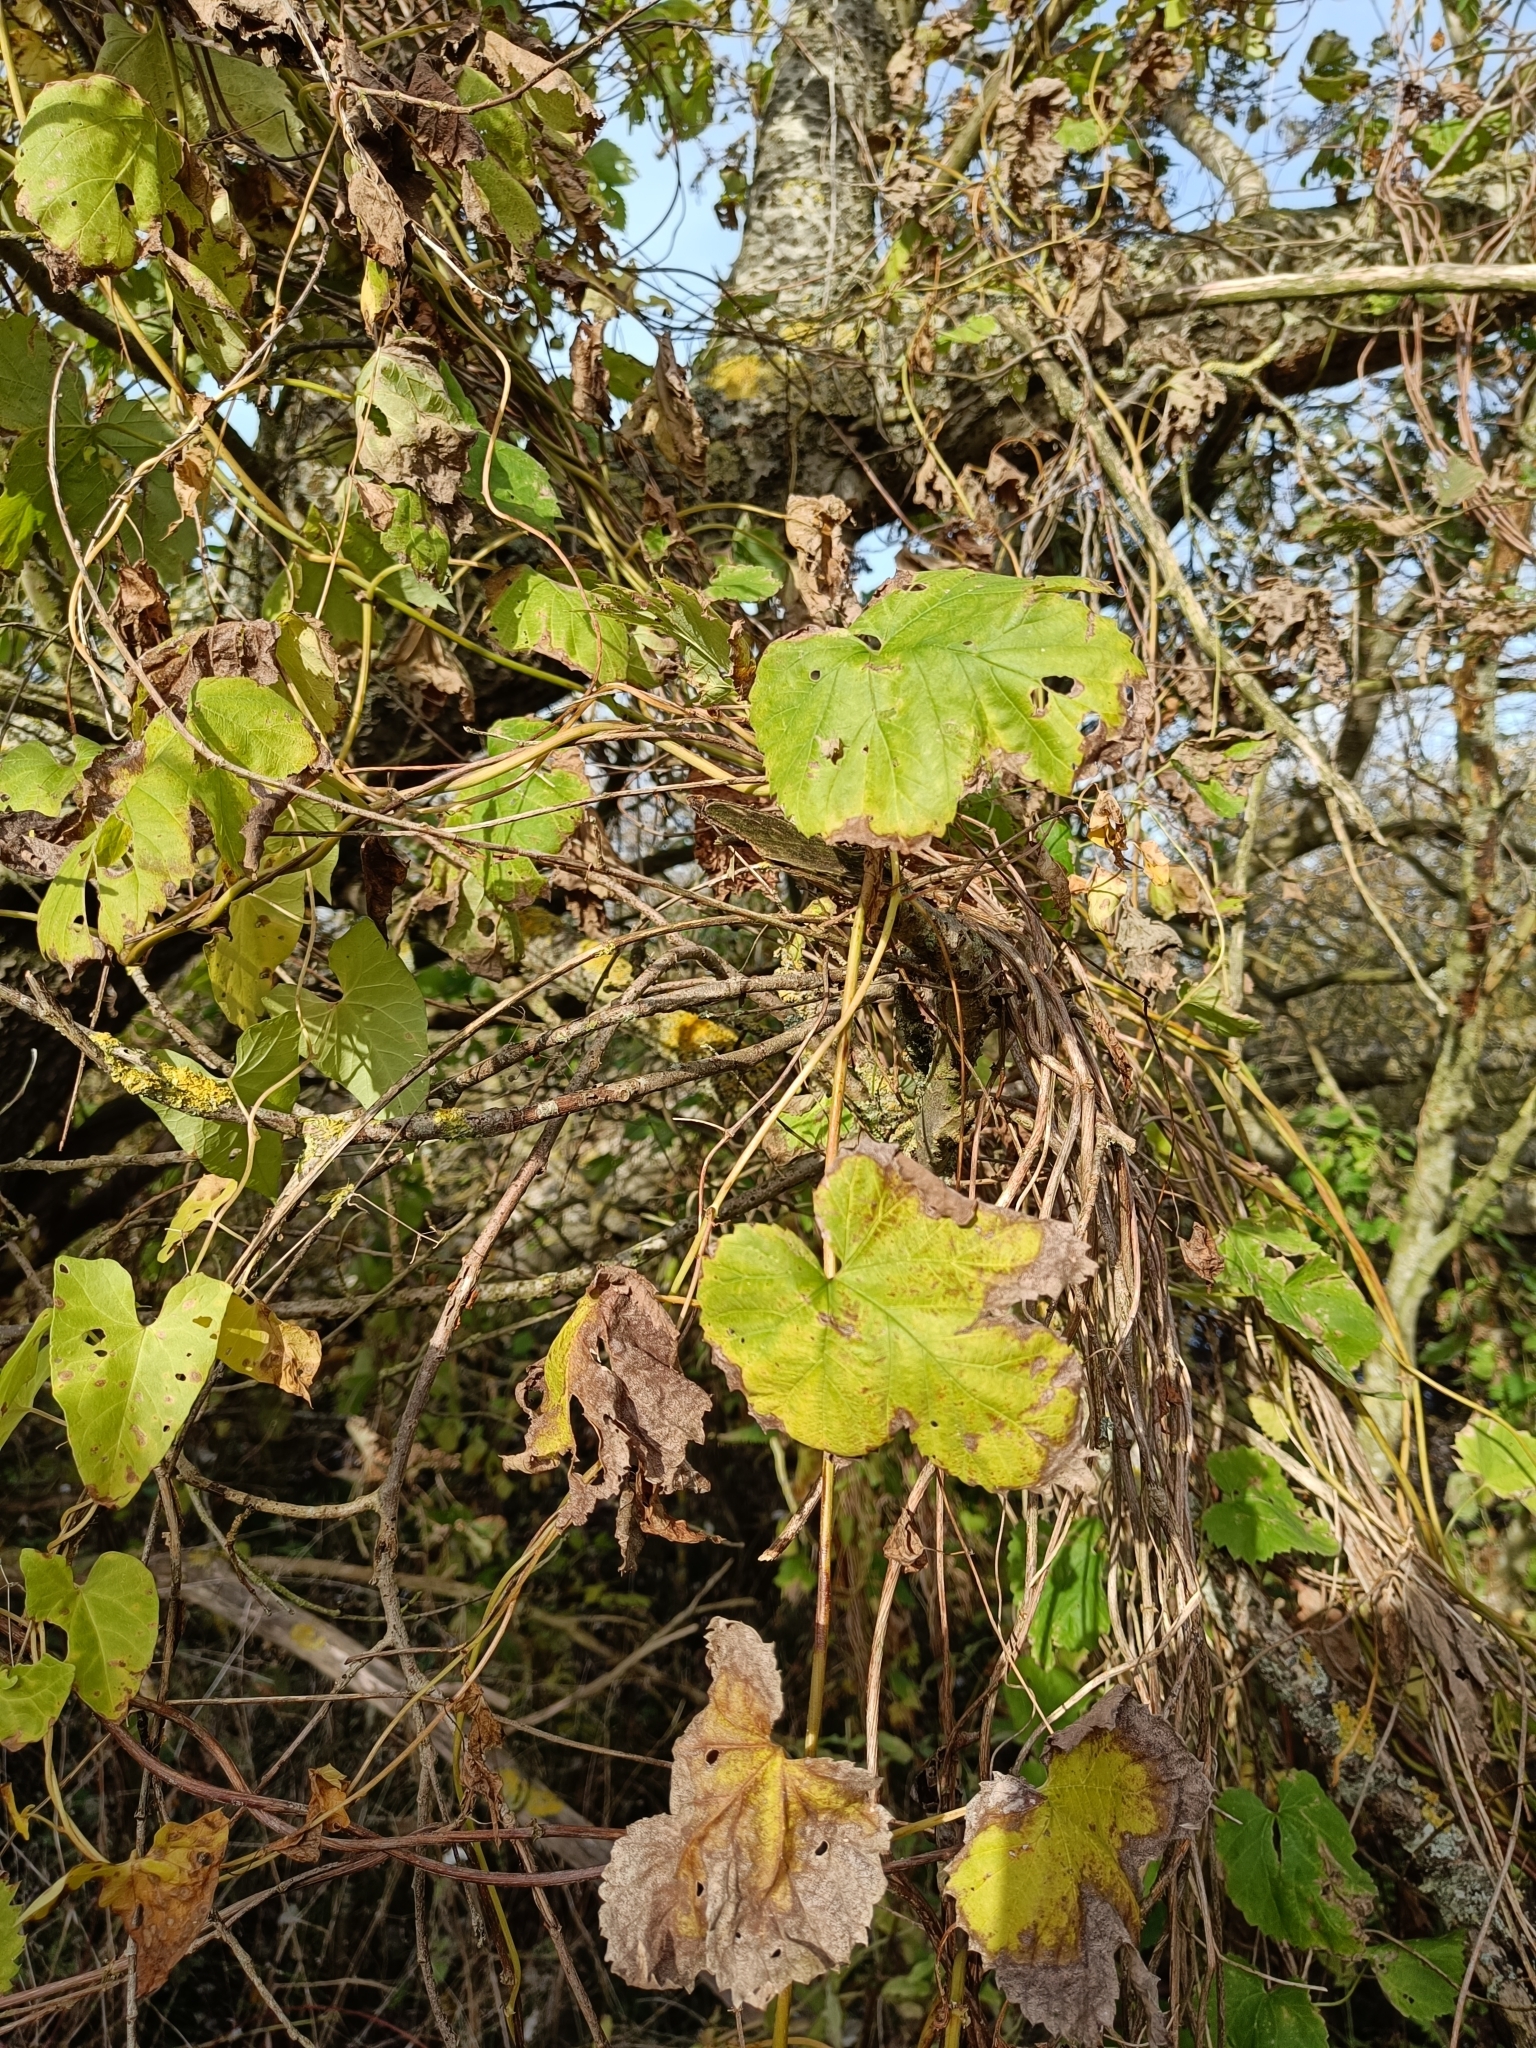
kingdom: Plantae
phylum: Tracheophyta
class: Magnoliopsida
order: Rosales
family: Cannabaceae
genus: Humulus
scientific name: Humulus lupulus
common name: Hop
